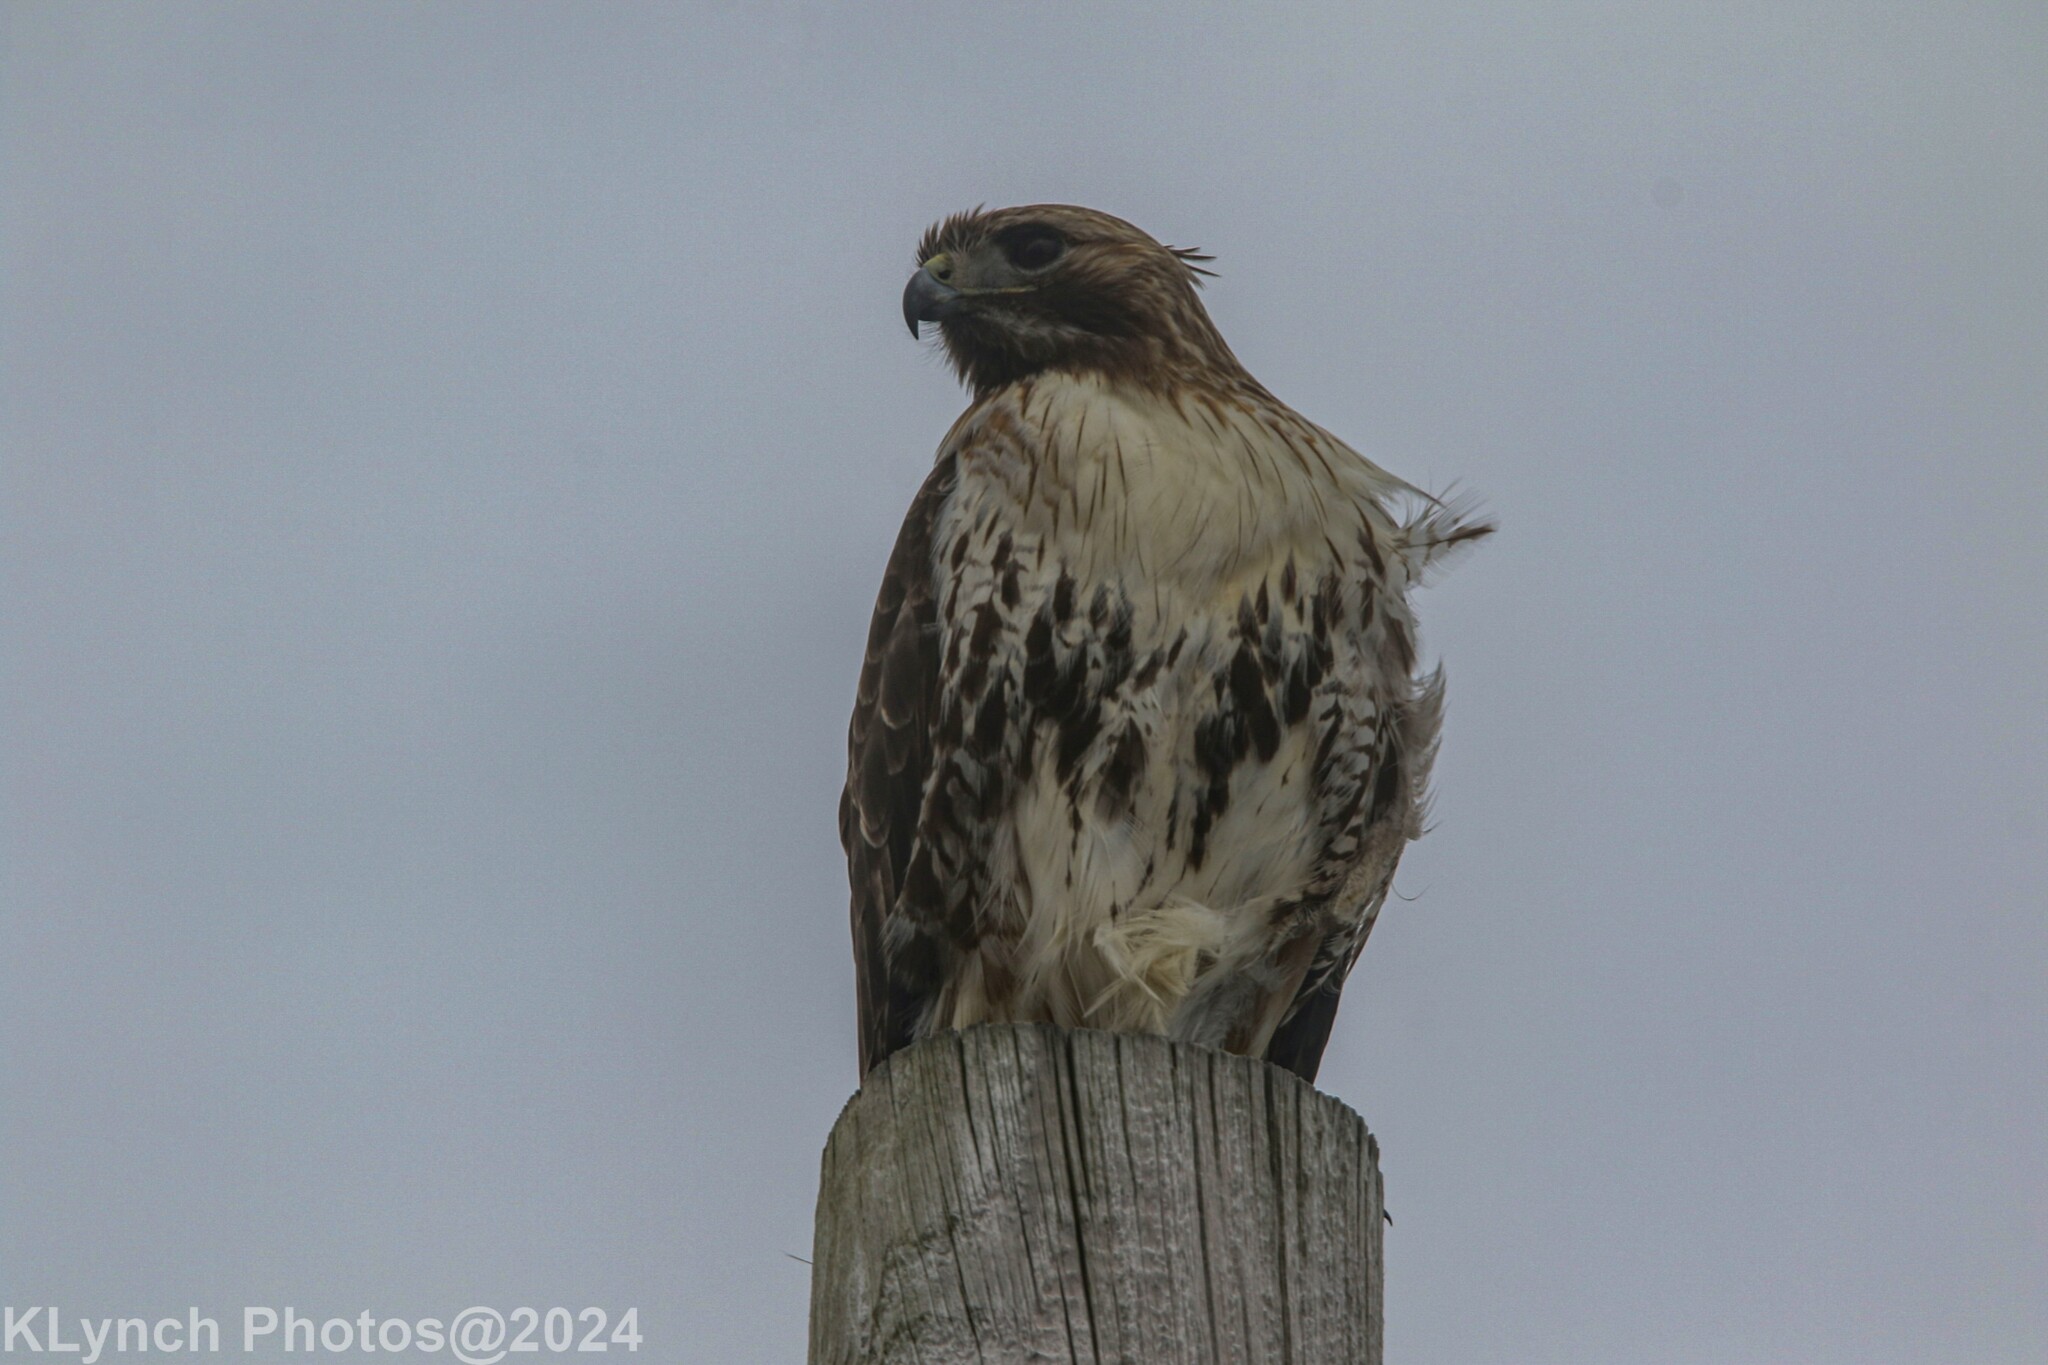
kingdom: Animalia
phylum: Chordata
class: Aves
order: Accipitriformes
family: Accipitridae
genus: Buteo
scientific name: Buteo jamaicensis
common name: Red-tailed hawk
